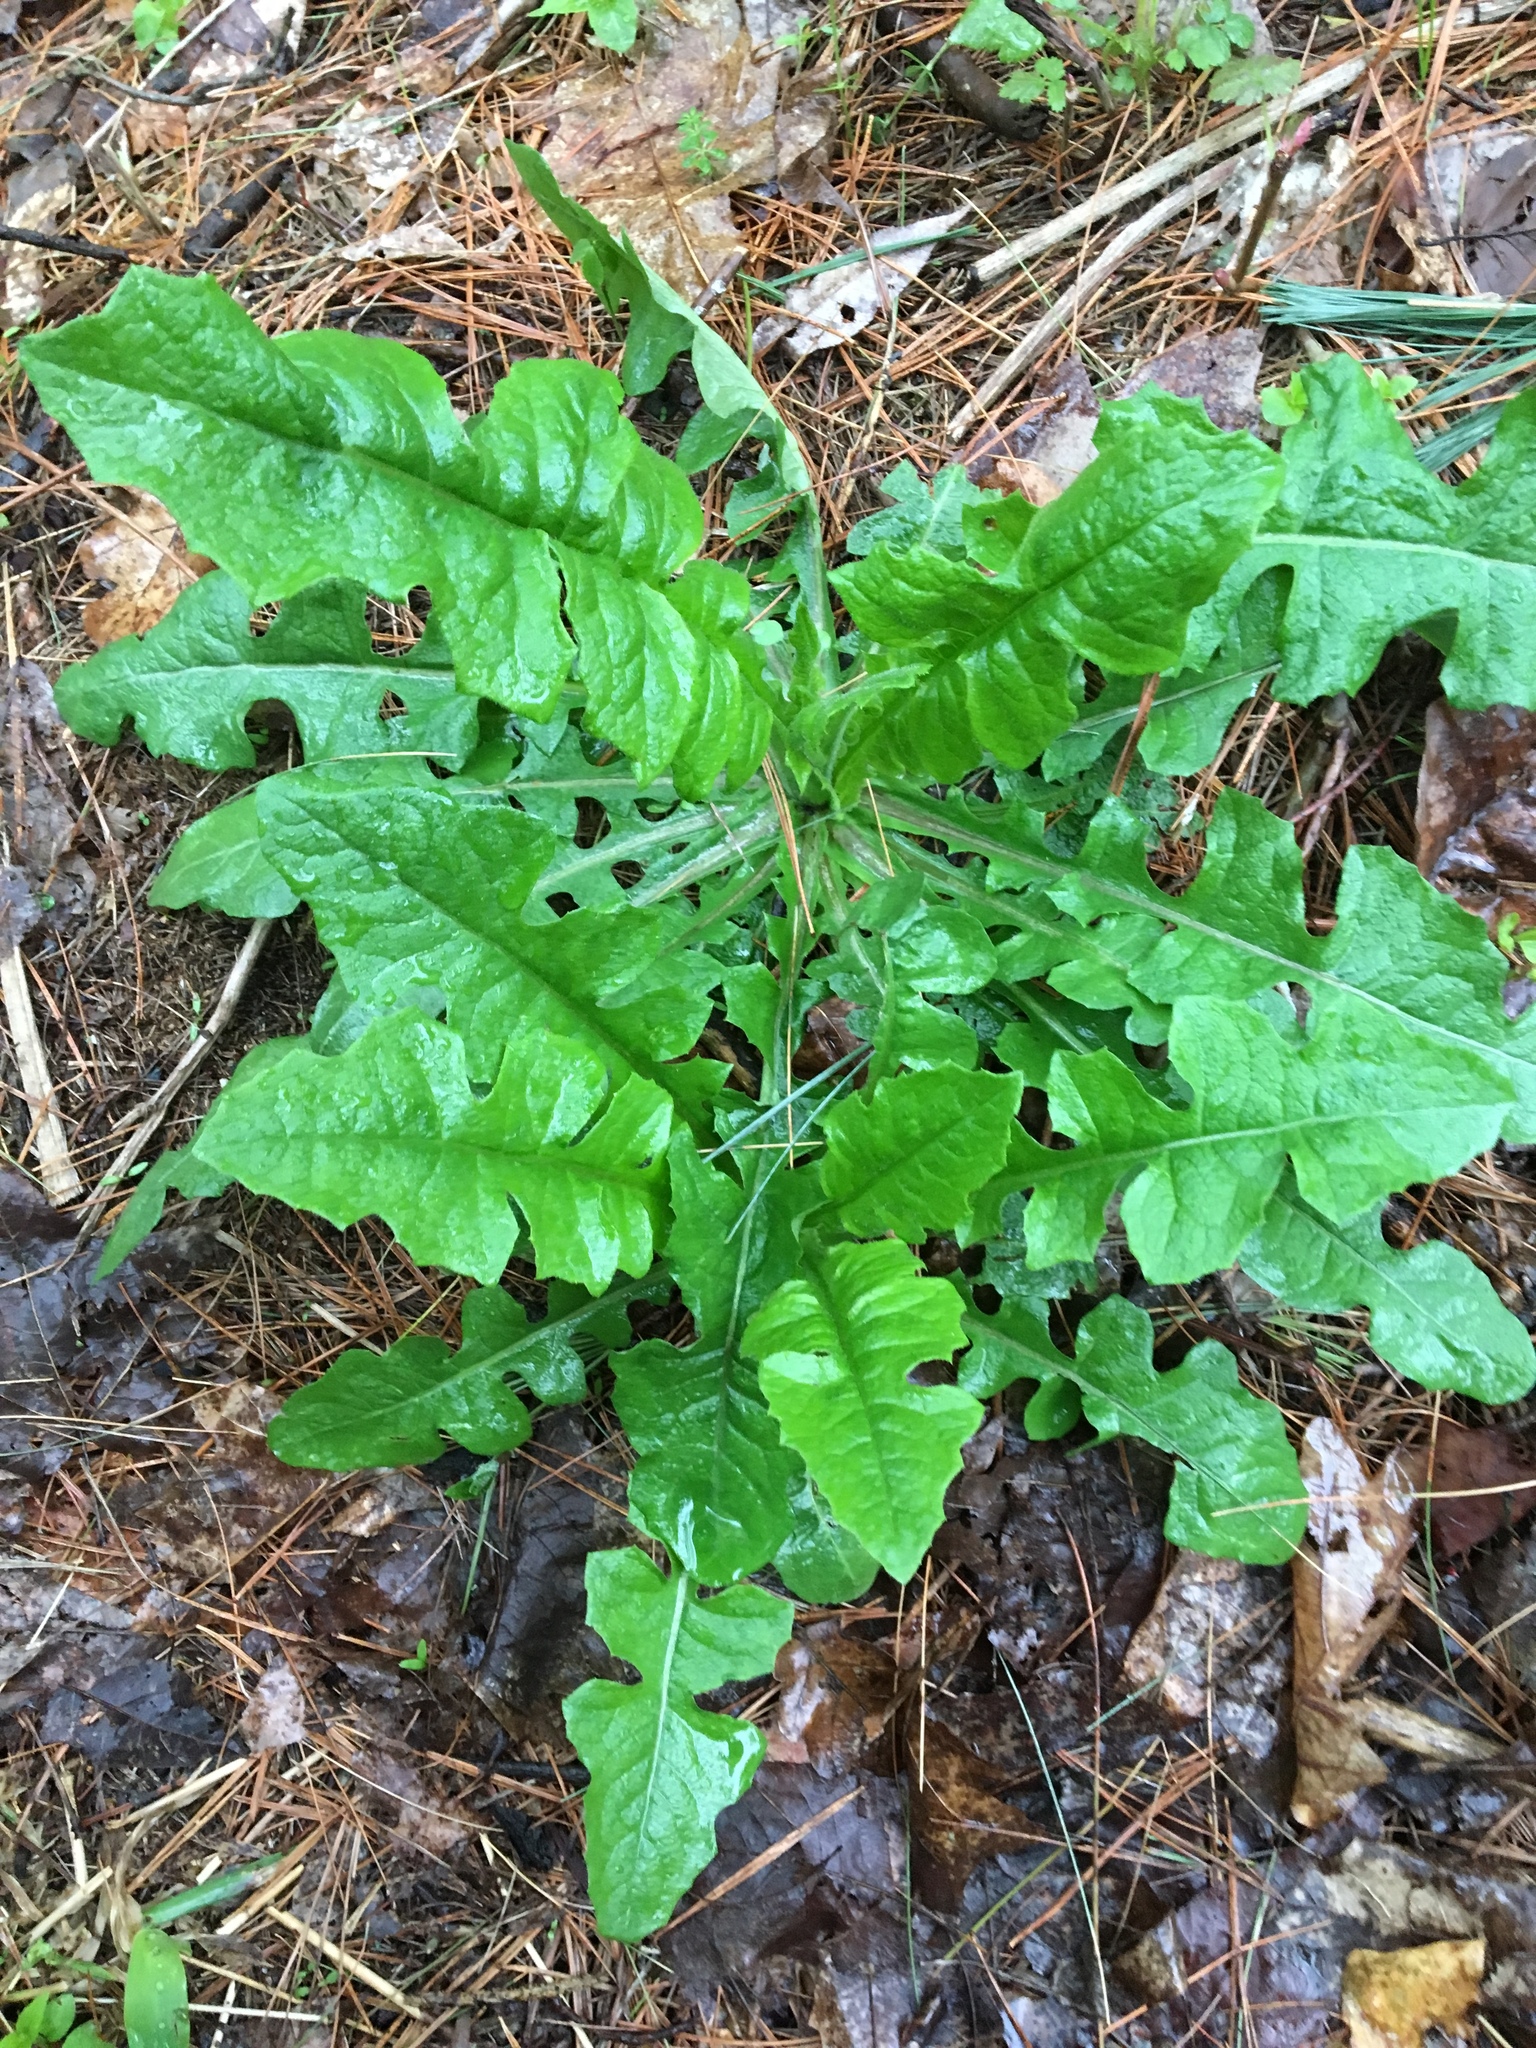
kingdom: Plantae
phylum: Tracheophyta
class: Magnoliopsida
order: Asterales
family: Asteraceae
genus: Cichorium
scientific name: Cichorium intybus
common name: Chicory
